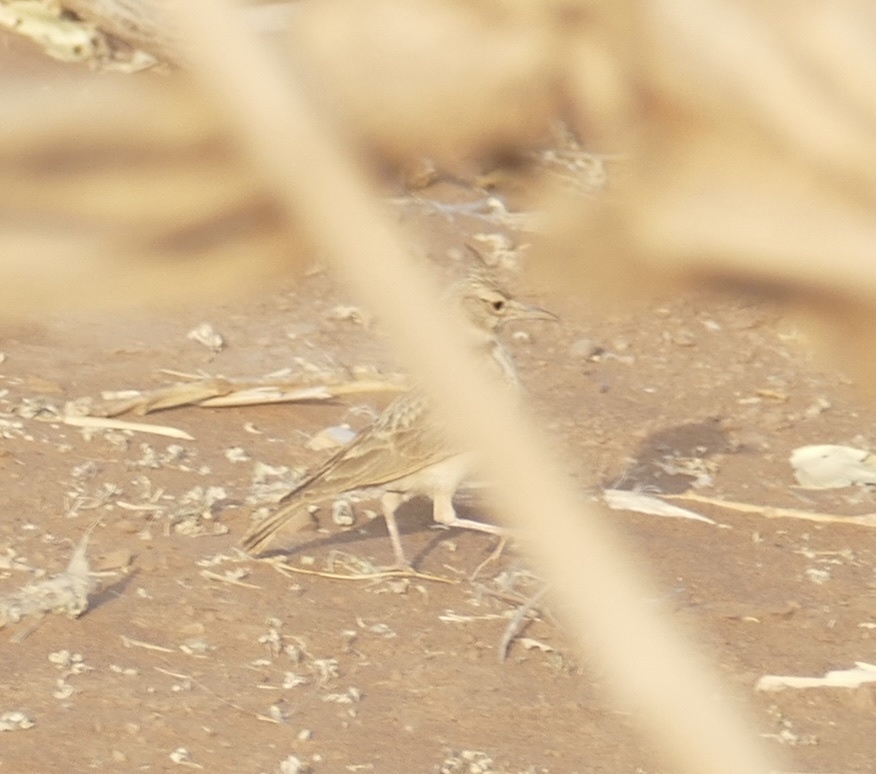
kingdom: Animalia
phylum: Chordata
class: Aves
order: Passeriformes
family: Alaudidae
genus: Galerida
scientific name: Galerida cristata
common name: Crested lark
